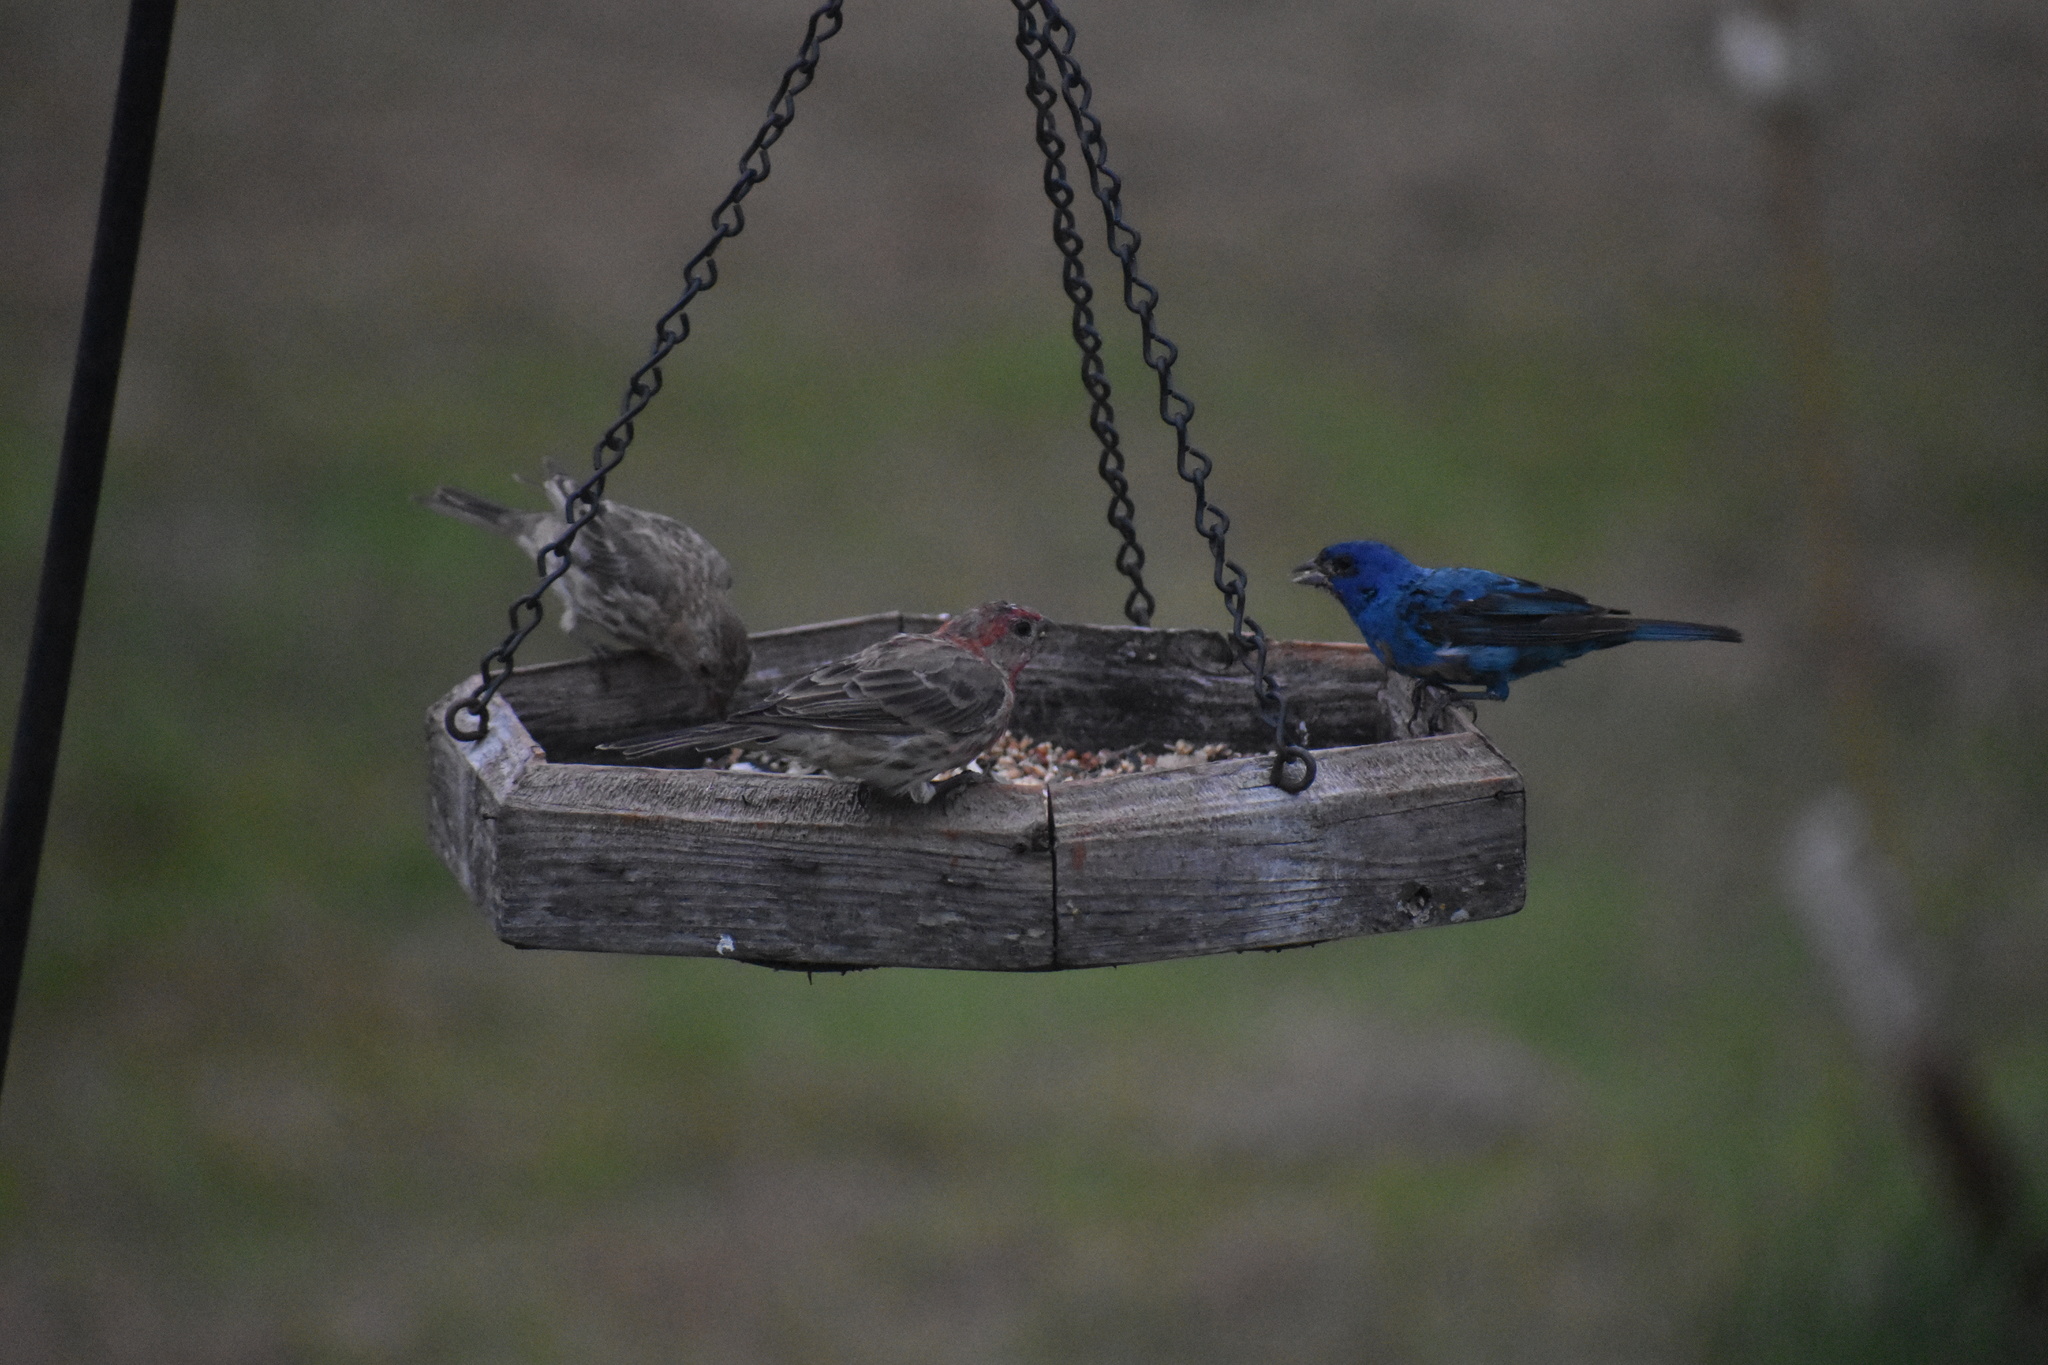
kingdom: Animalia
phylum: Chordata
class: Aves
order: Passeriformes
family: Cardinalidae
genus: Passerina
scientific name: Passerina cyanea
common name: Indigo bunting
